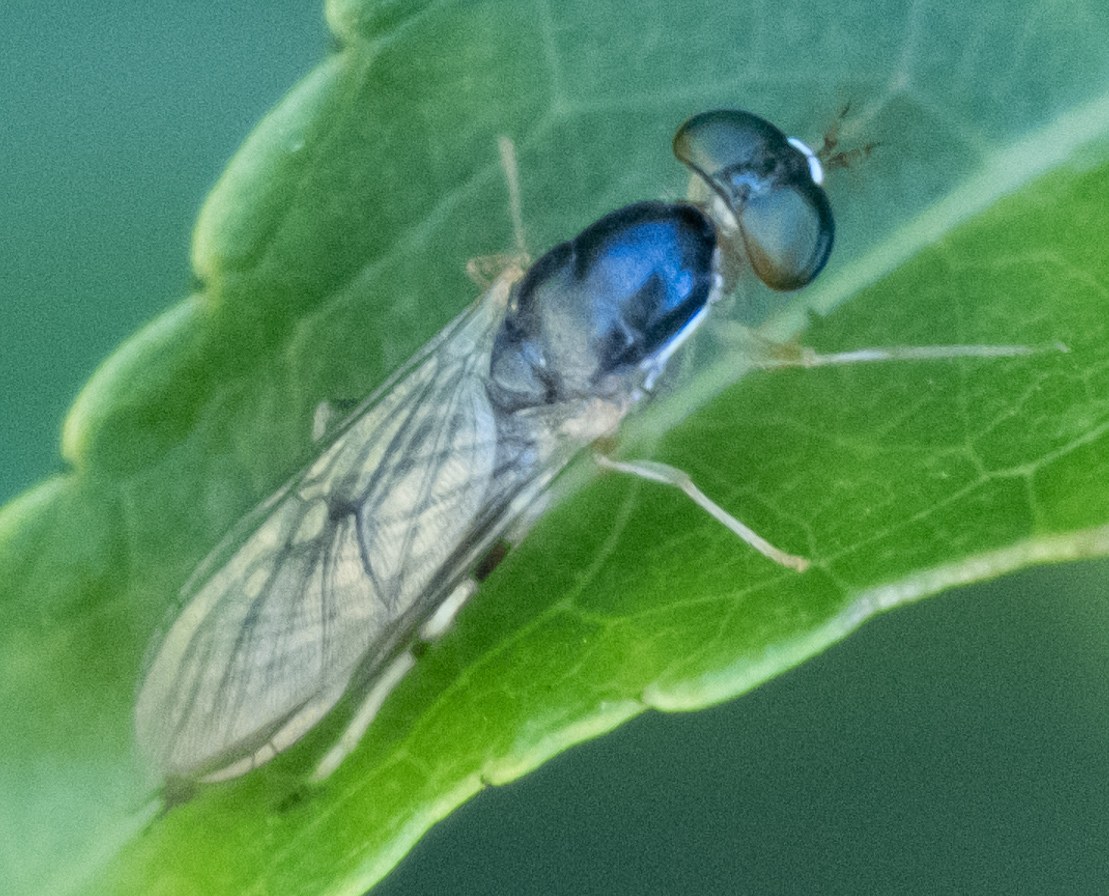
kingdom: Animalia
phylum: Arthropoda
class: Insecta
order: Diptera
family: Stratiomyidae
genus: Merosargus
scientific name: Merosargus caeruleifrons
